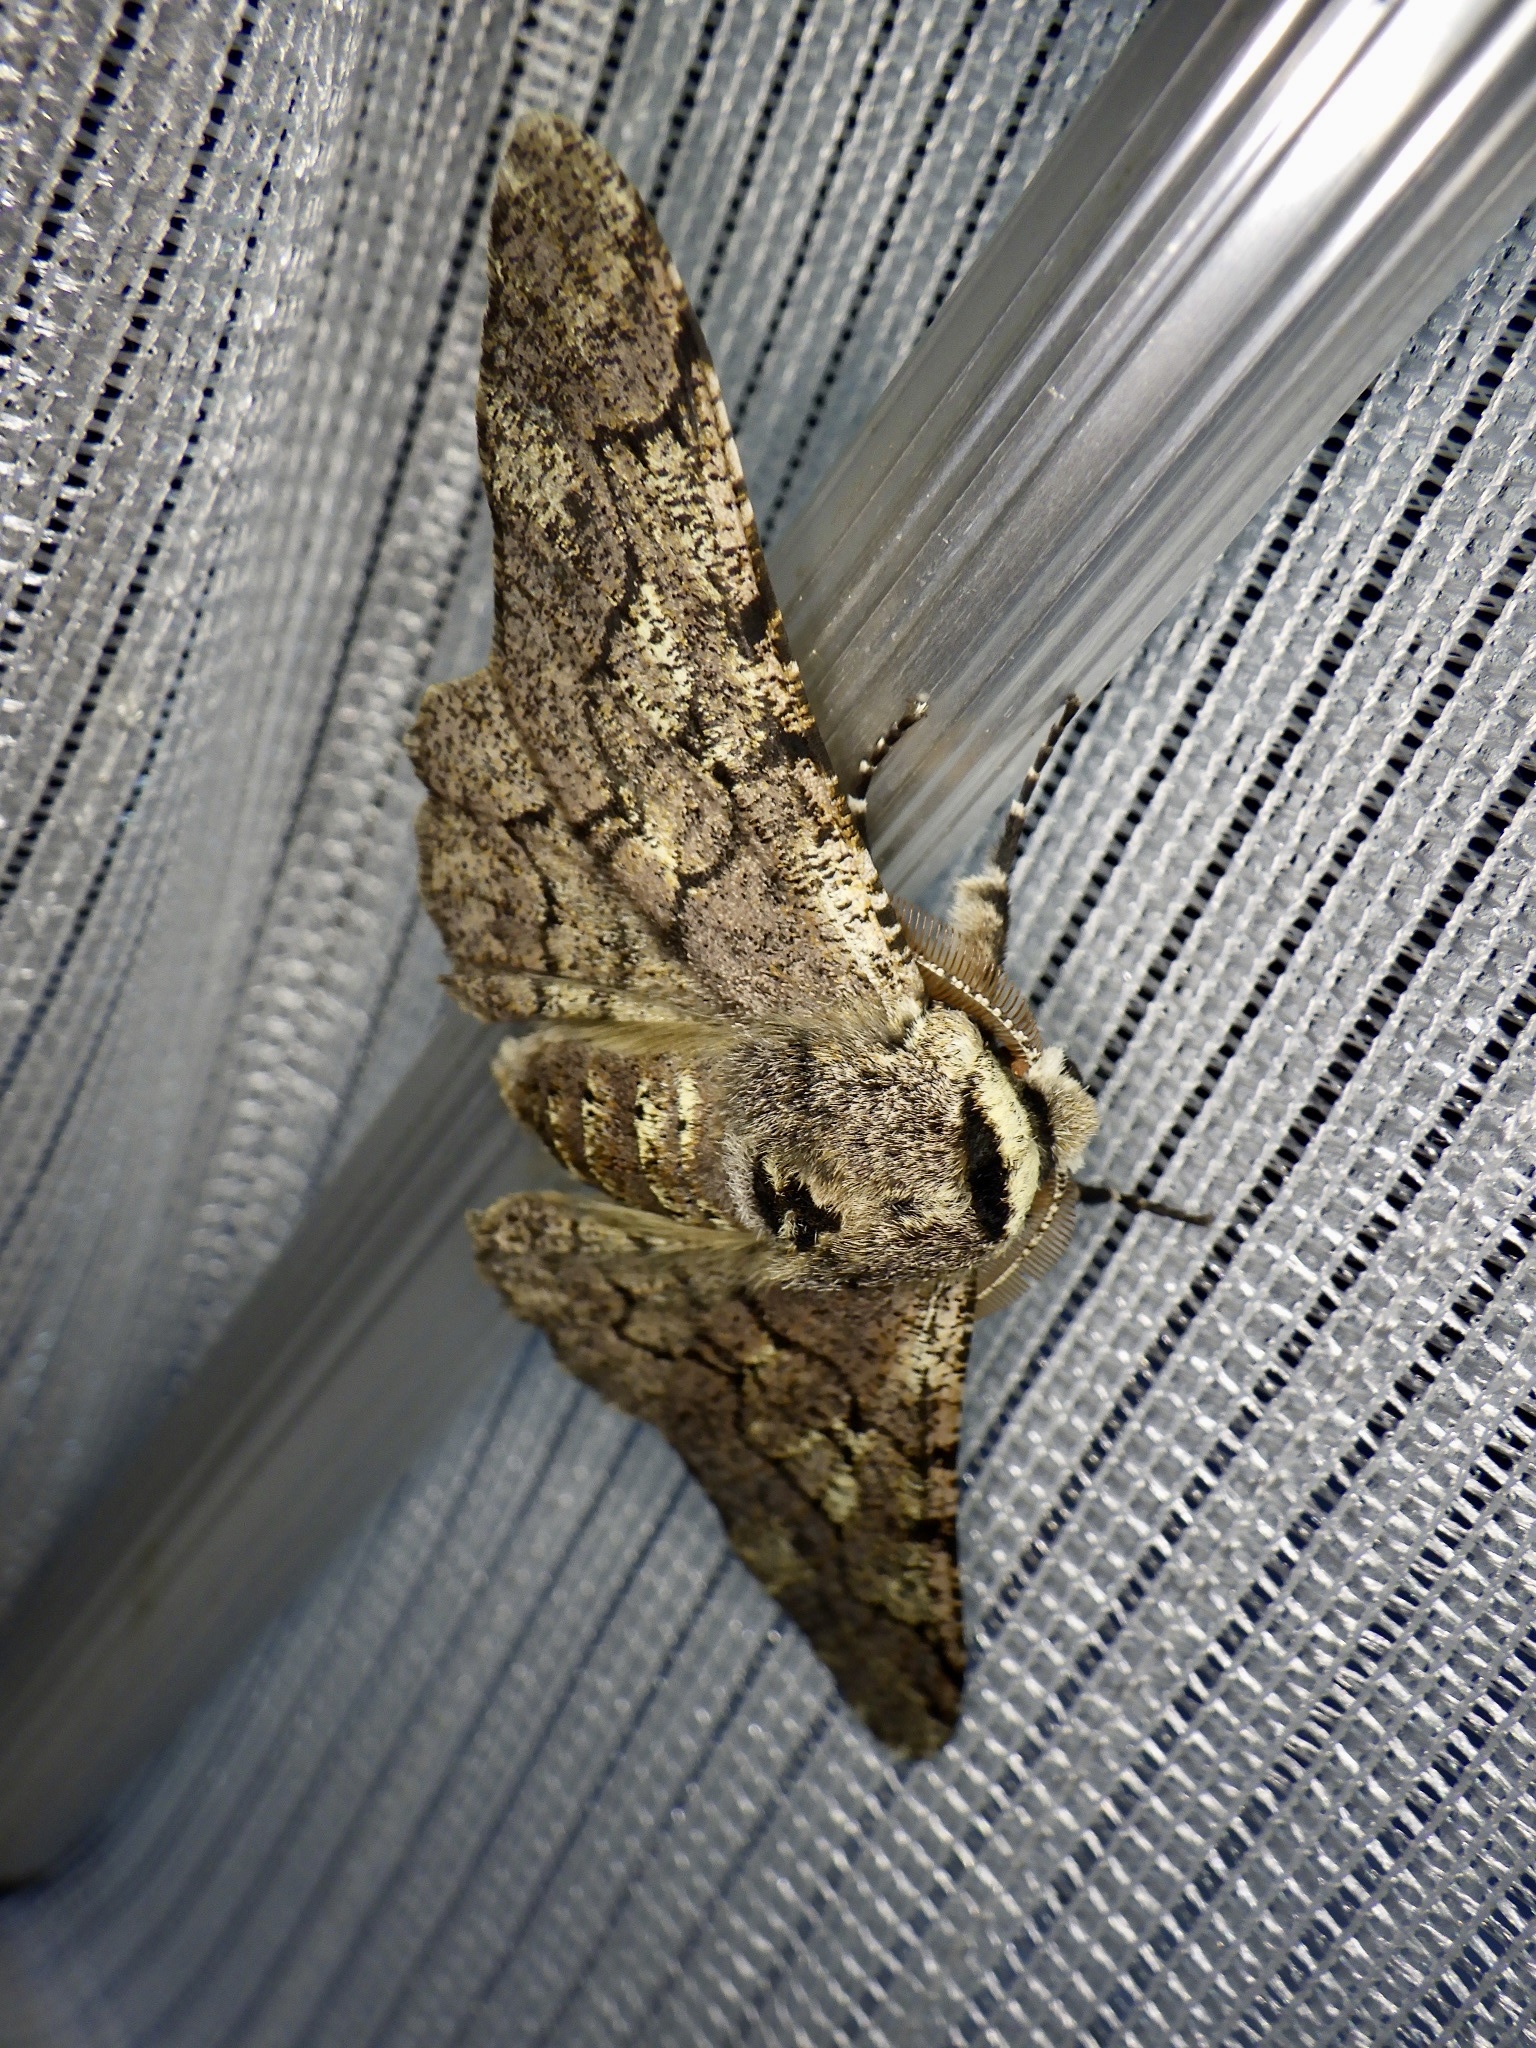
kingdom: Animalia
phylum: Arthropoda
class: Insecta
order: Lepidoptera
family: Geometridae
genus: Biston
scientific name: Biston robustum
